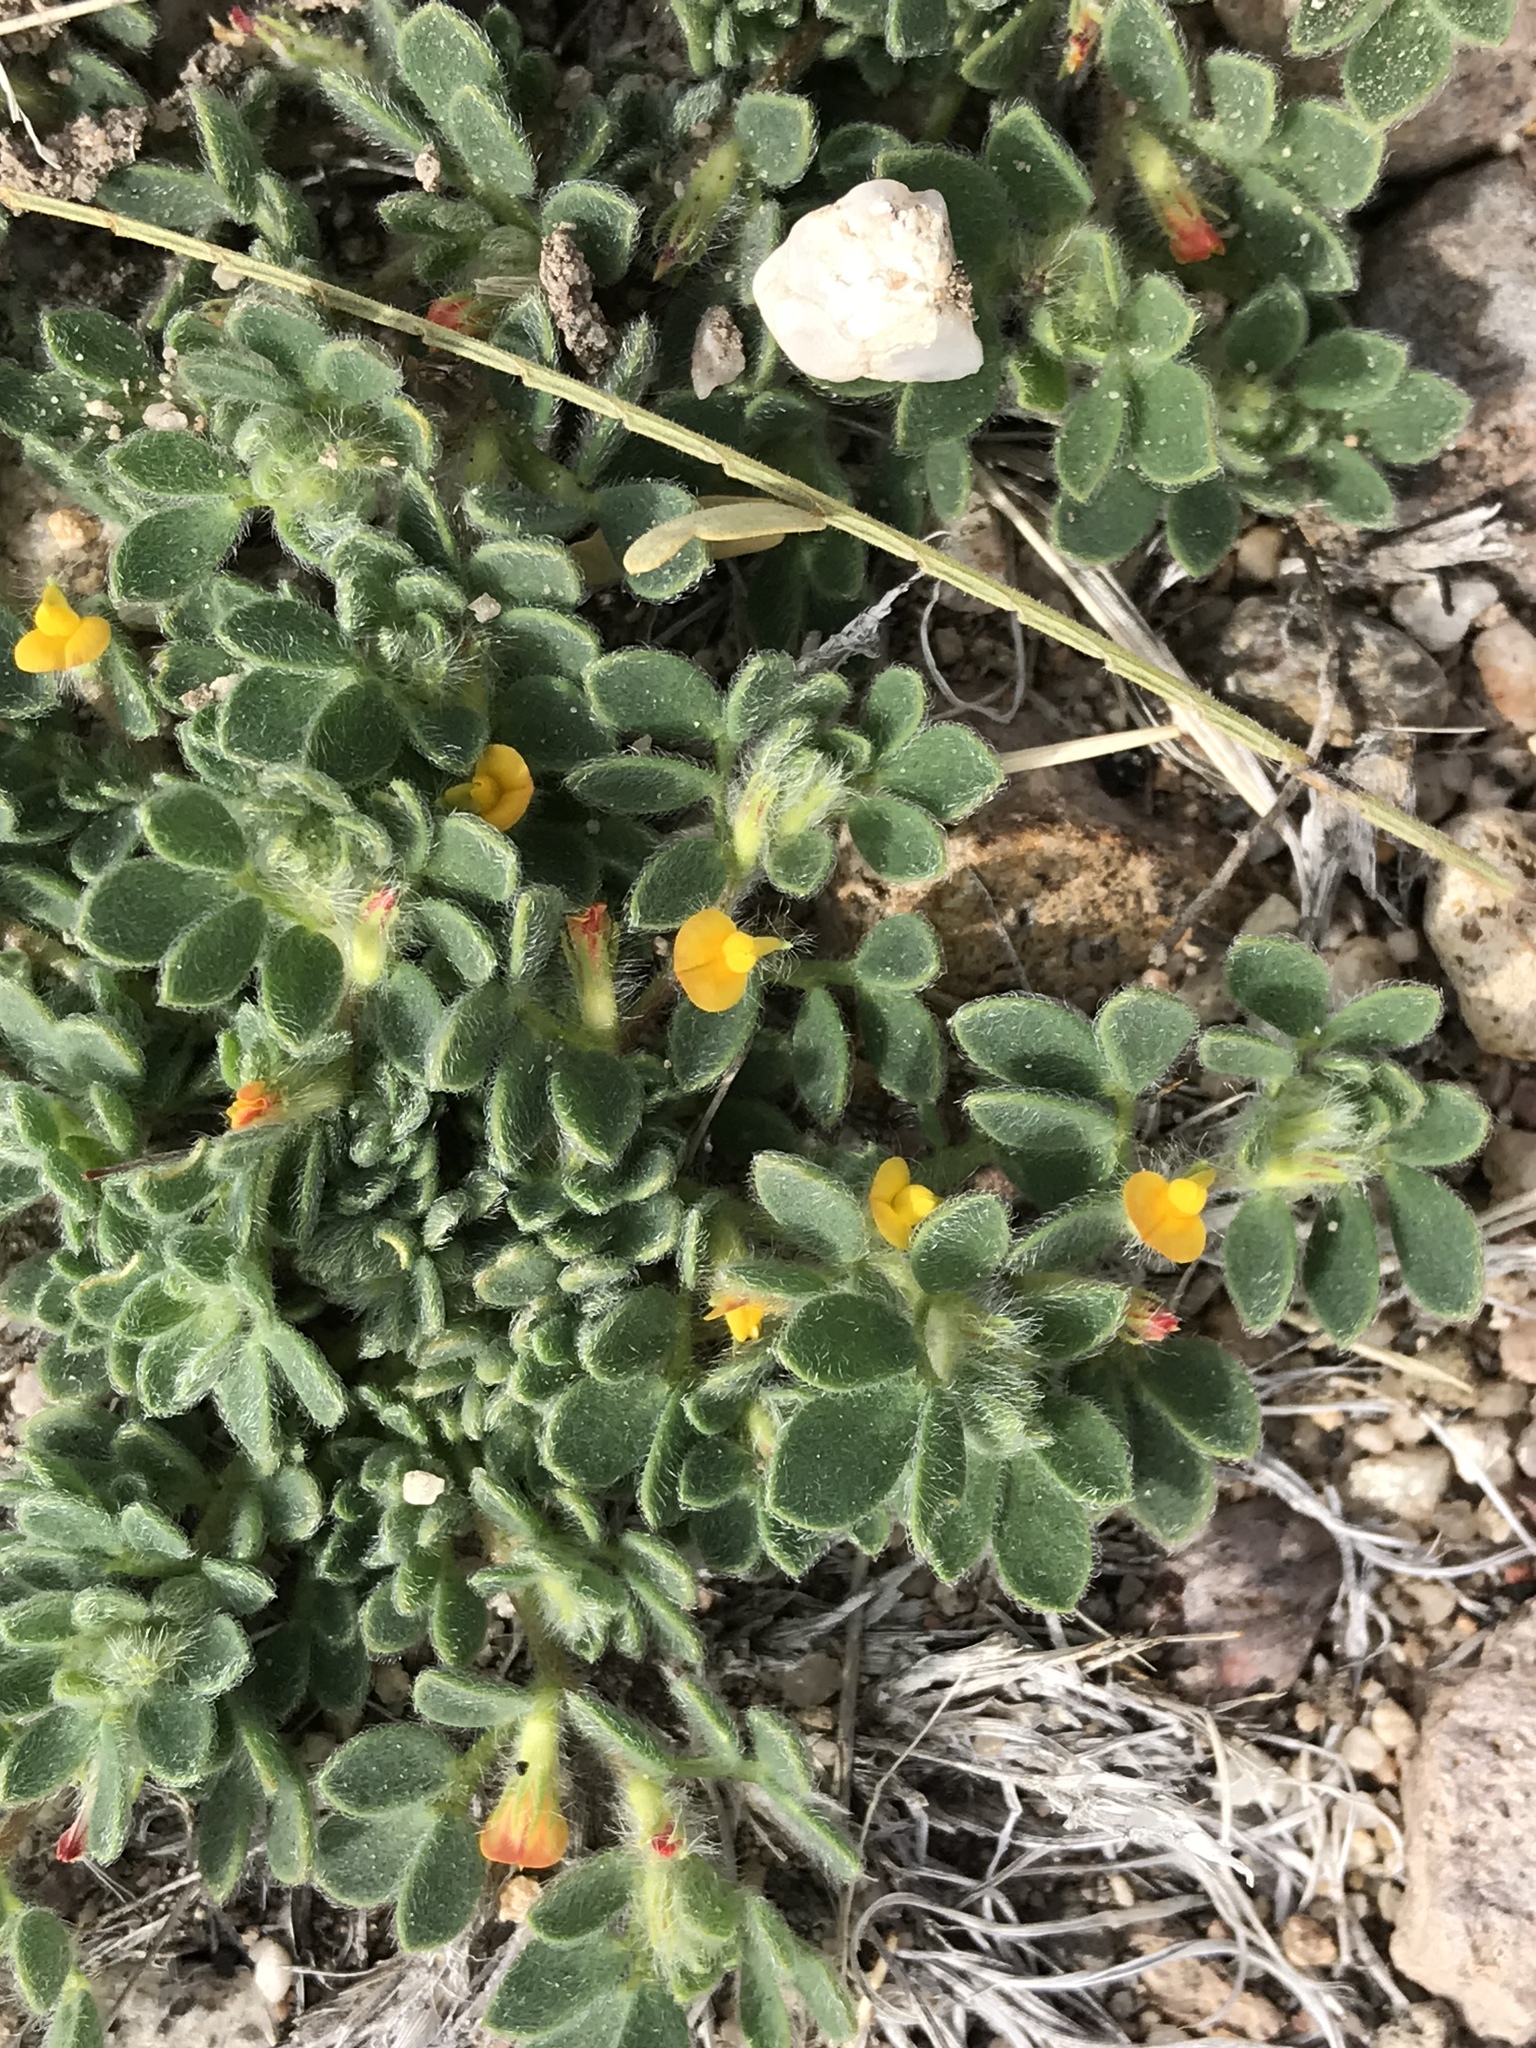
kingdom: Plantae
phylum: Tracheophyta
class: Magnoliopsida
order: Fabales
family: Fabaceae
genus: Acmispon
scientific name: Acmispon brachycarpus
